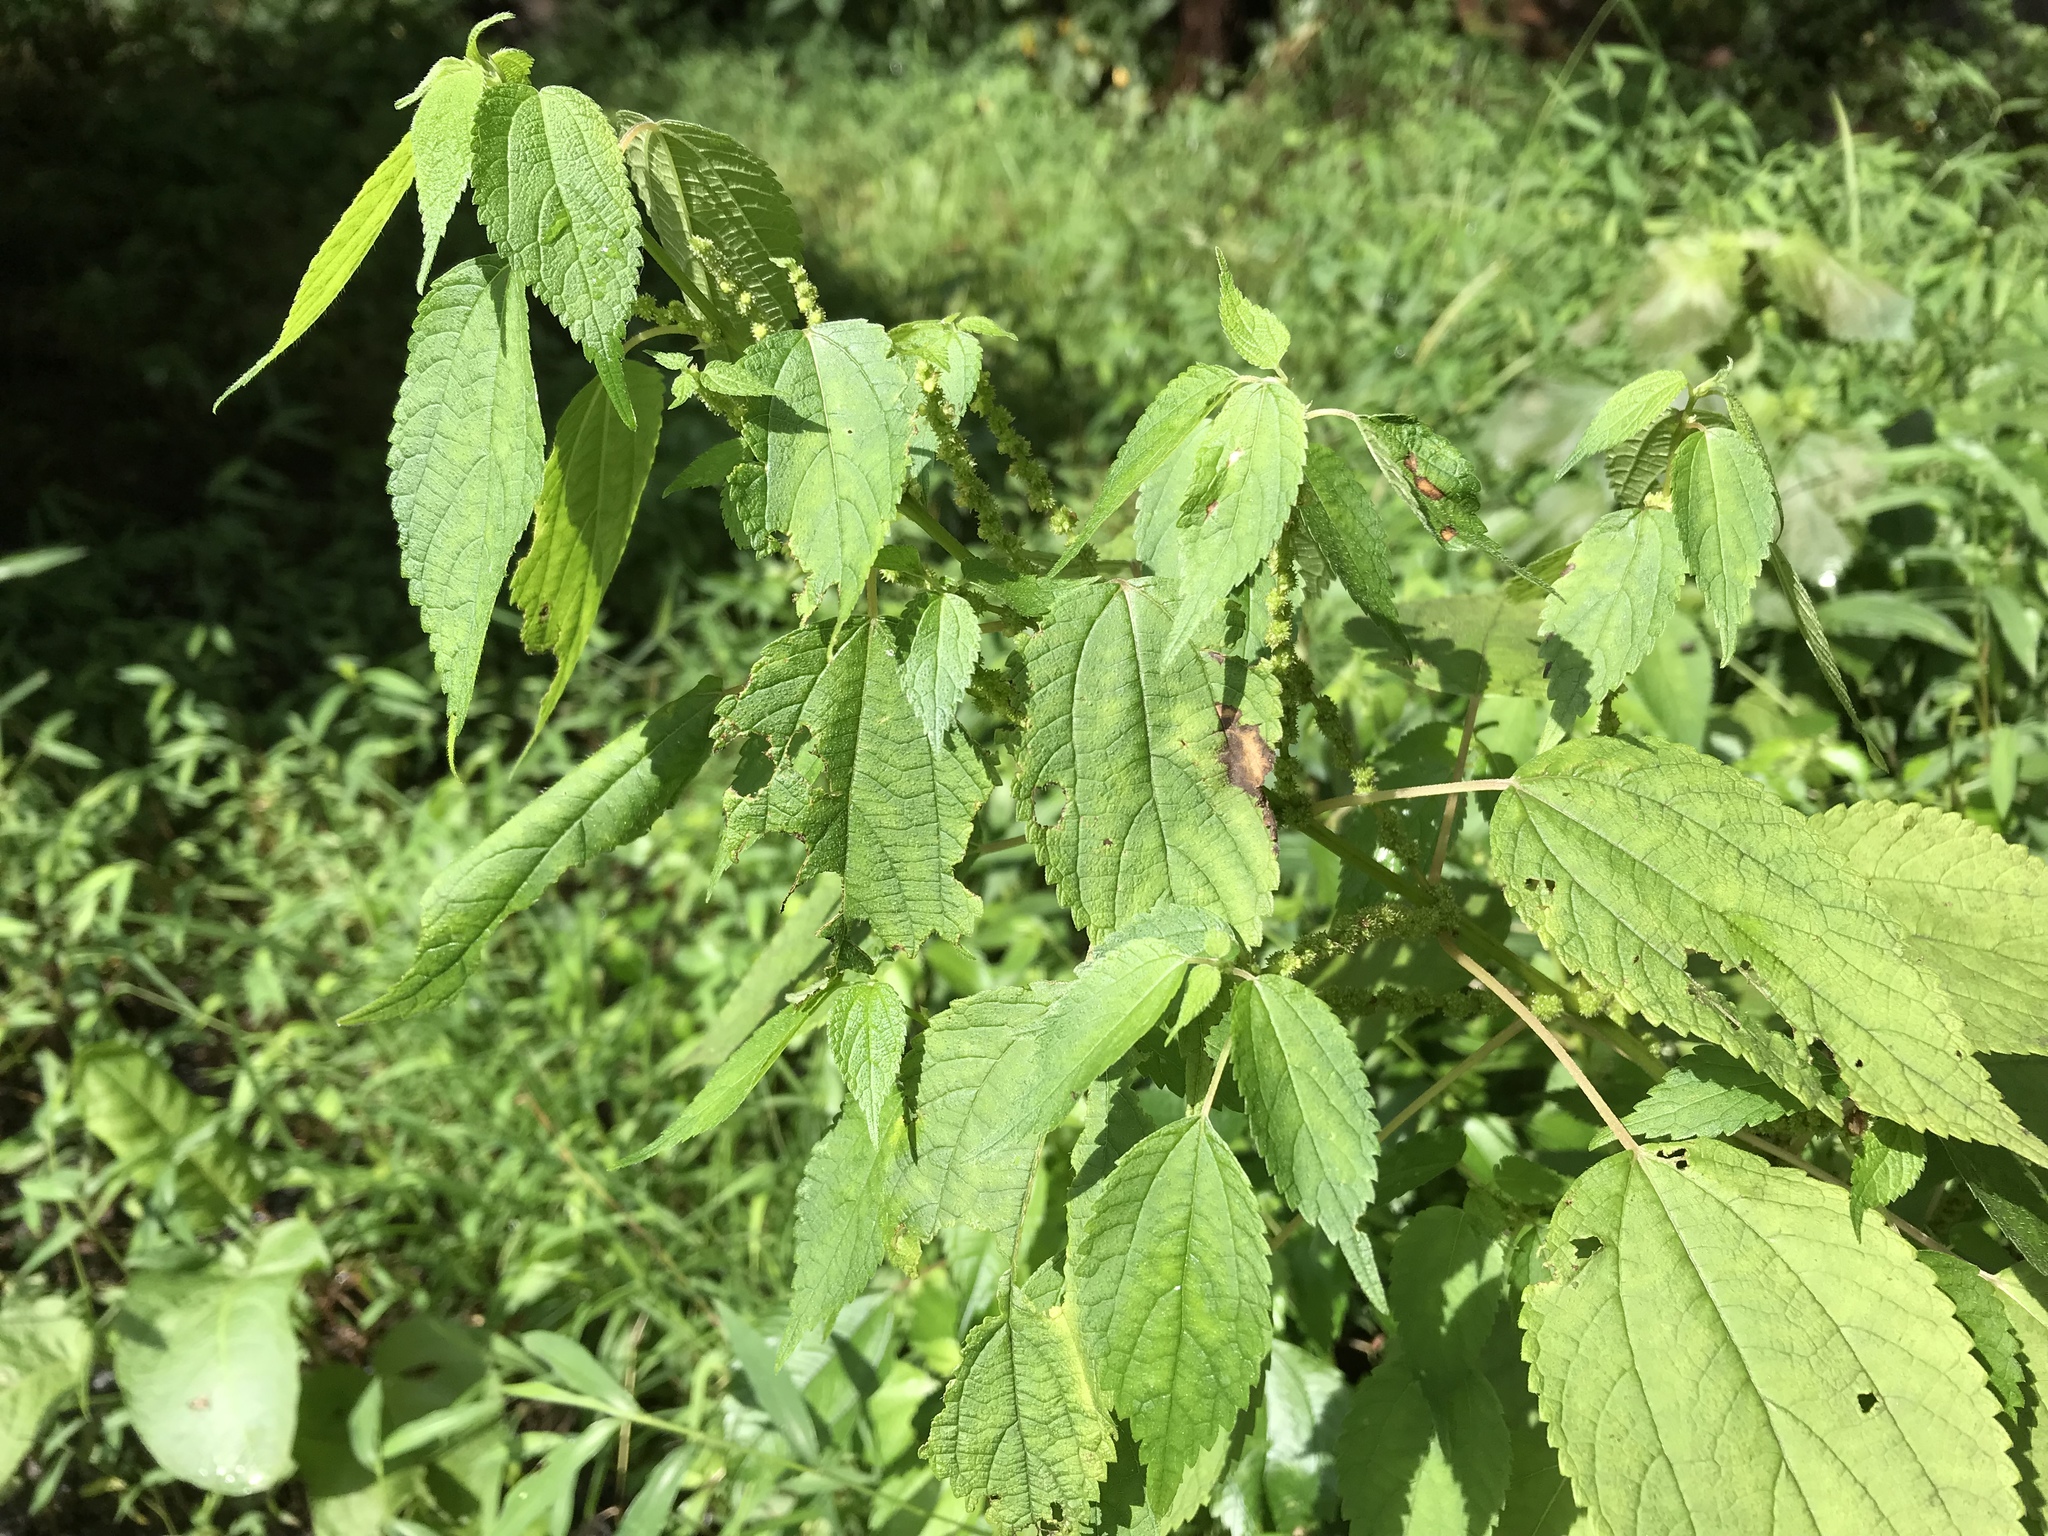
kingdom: Plantae
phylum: Tracheophyta
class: Magnoliopsida
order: Rosales
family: Urticaceae
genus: Urtica
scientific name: Urtica dioica
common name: Common nettle
